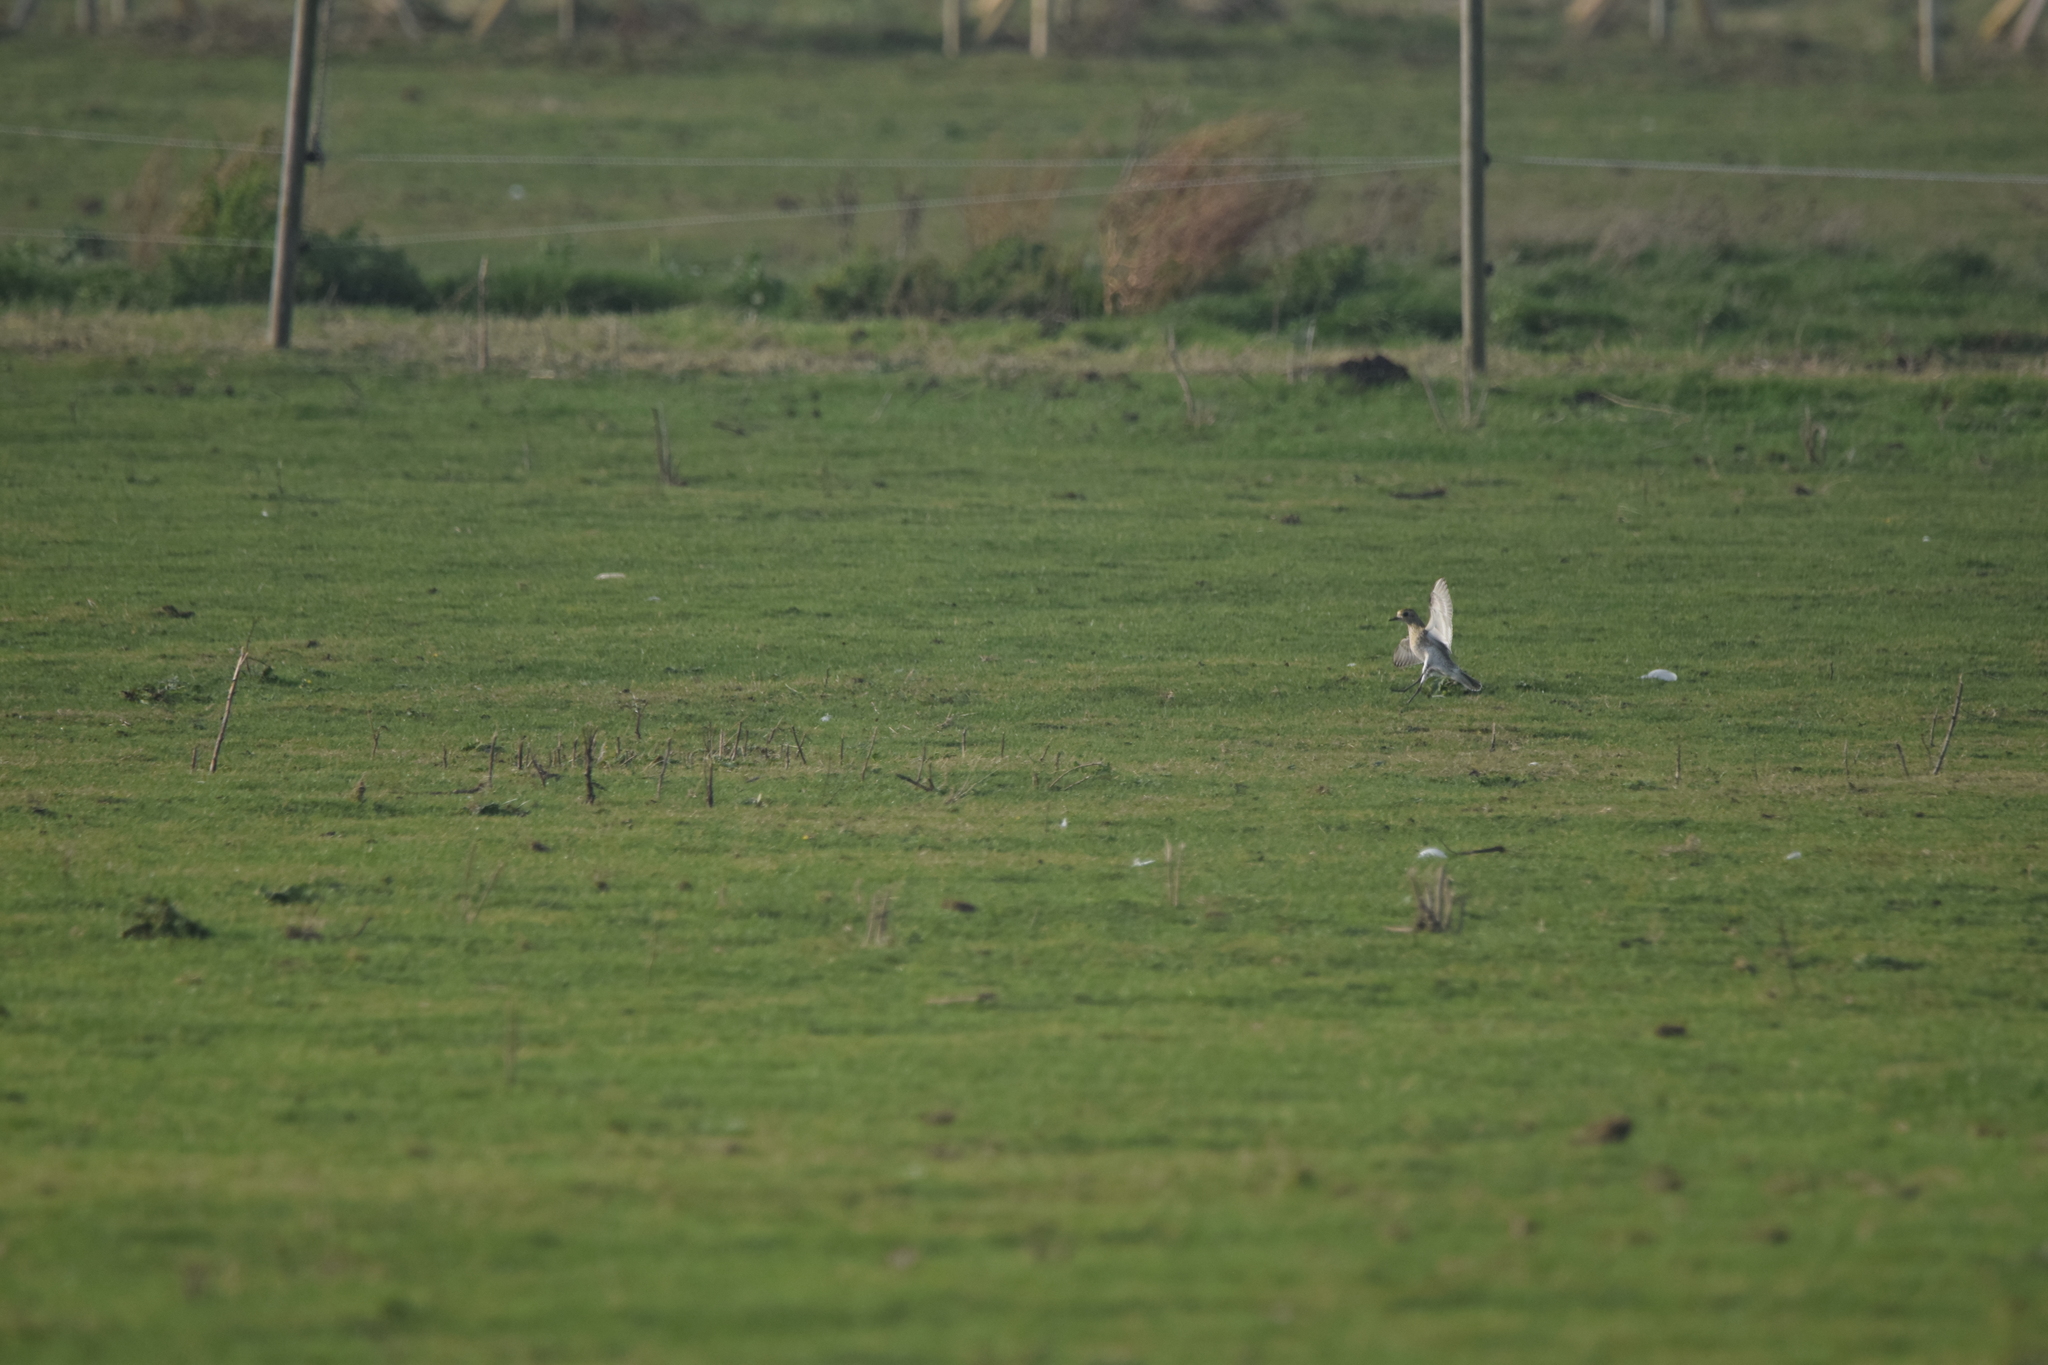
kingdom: Animalia
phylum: Chordata
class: Aves
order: Charadriiformes
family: Charadriidae
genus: Pluvialis
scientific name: Pluvialis apricaria
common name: European golden plover
